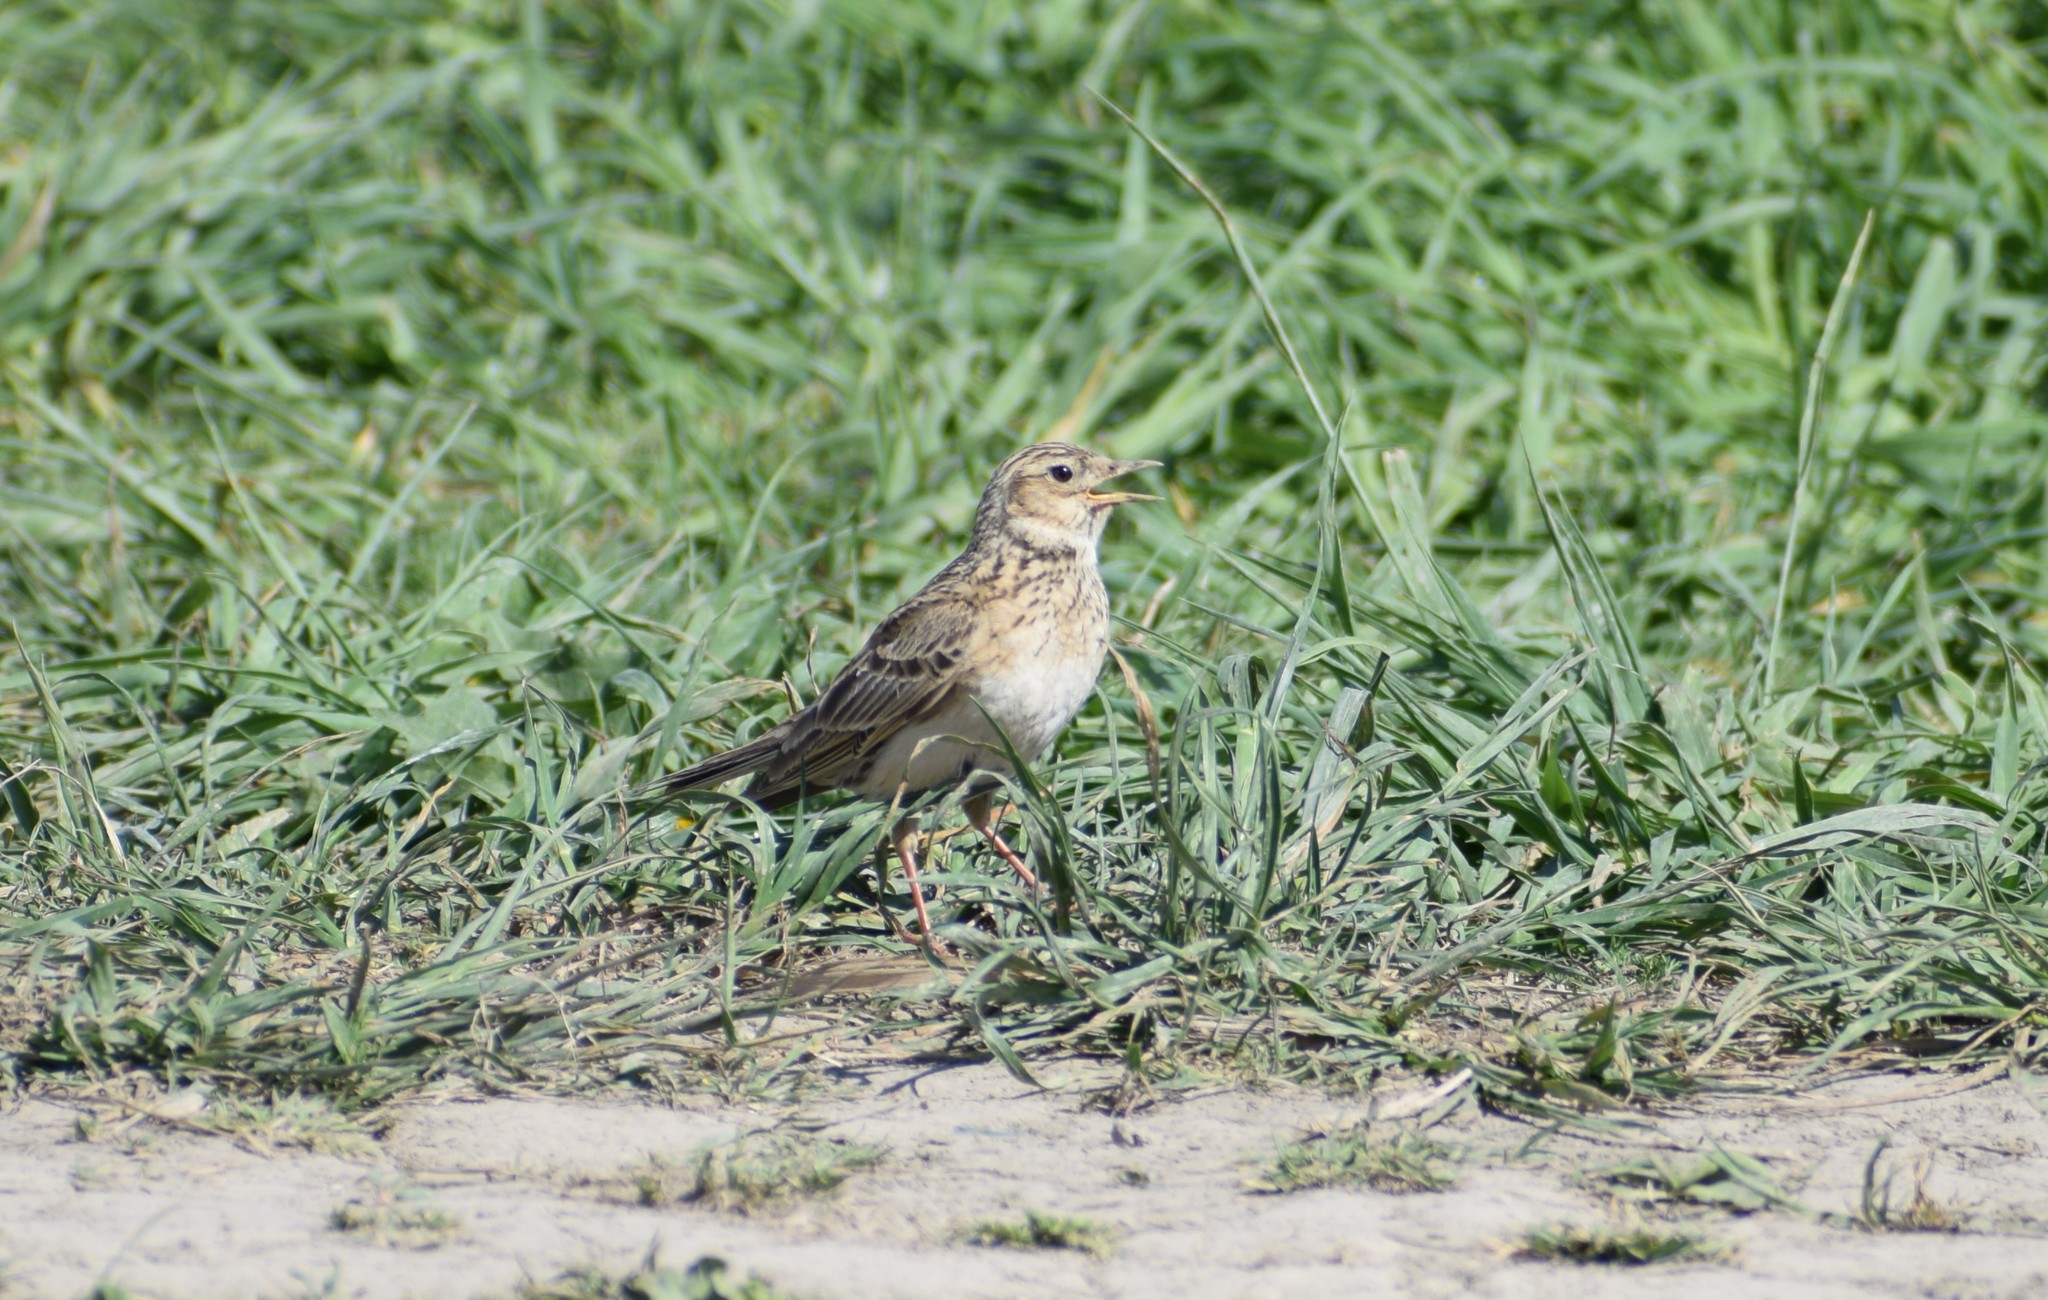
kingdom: Animalia
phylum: Chordata
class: Aves
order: Passeriformes
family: Alaudidae
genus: Alauda
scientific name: Alauda arvensis
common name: Eurasian skylark
